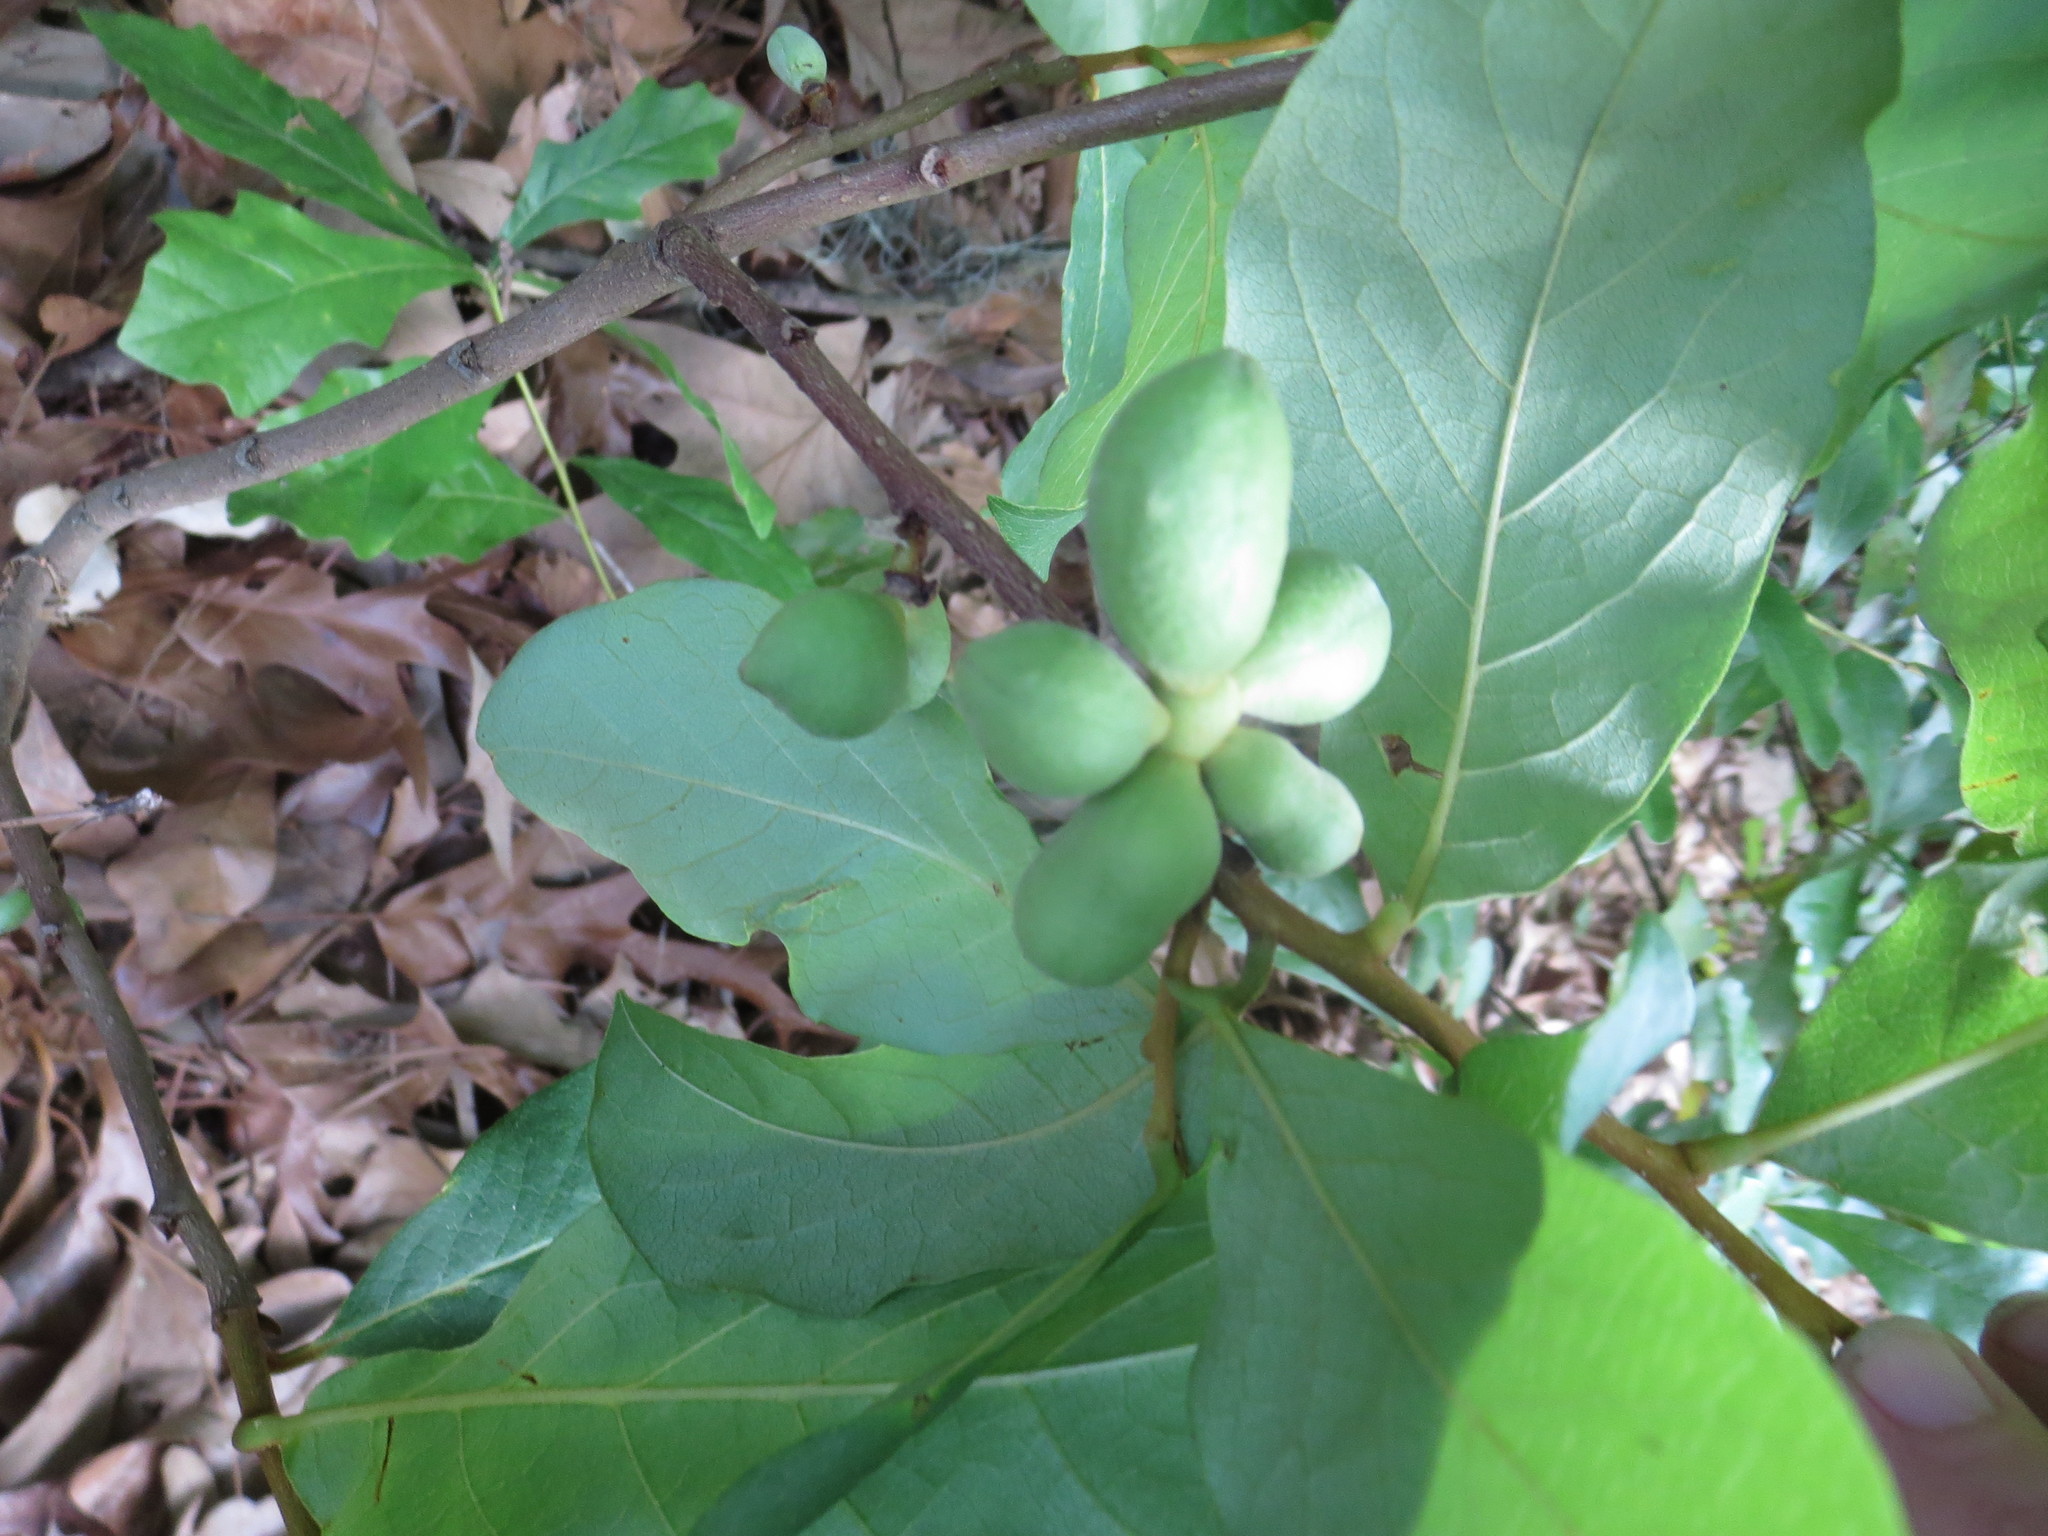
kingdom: Plantae
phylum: Tracheophyta
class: Magnoliopsida
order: Magnoliales
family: Annonaceae
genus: Asimina
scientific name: Asimina parviflora
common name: Dwarf pawpaw
